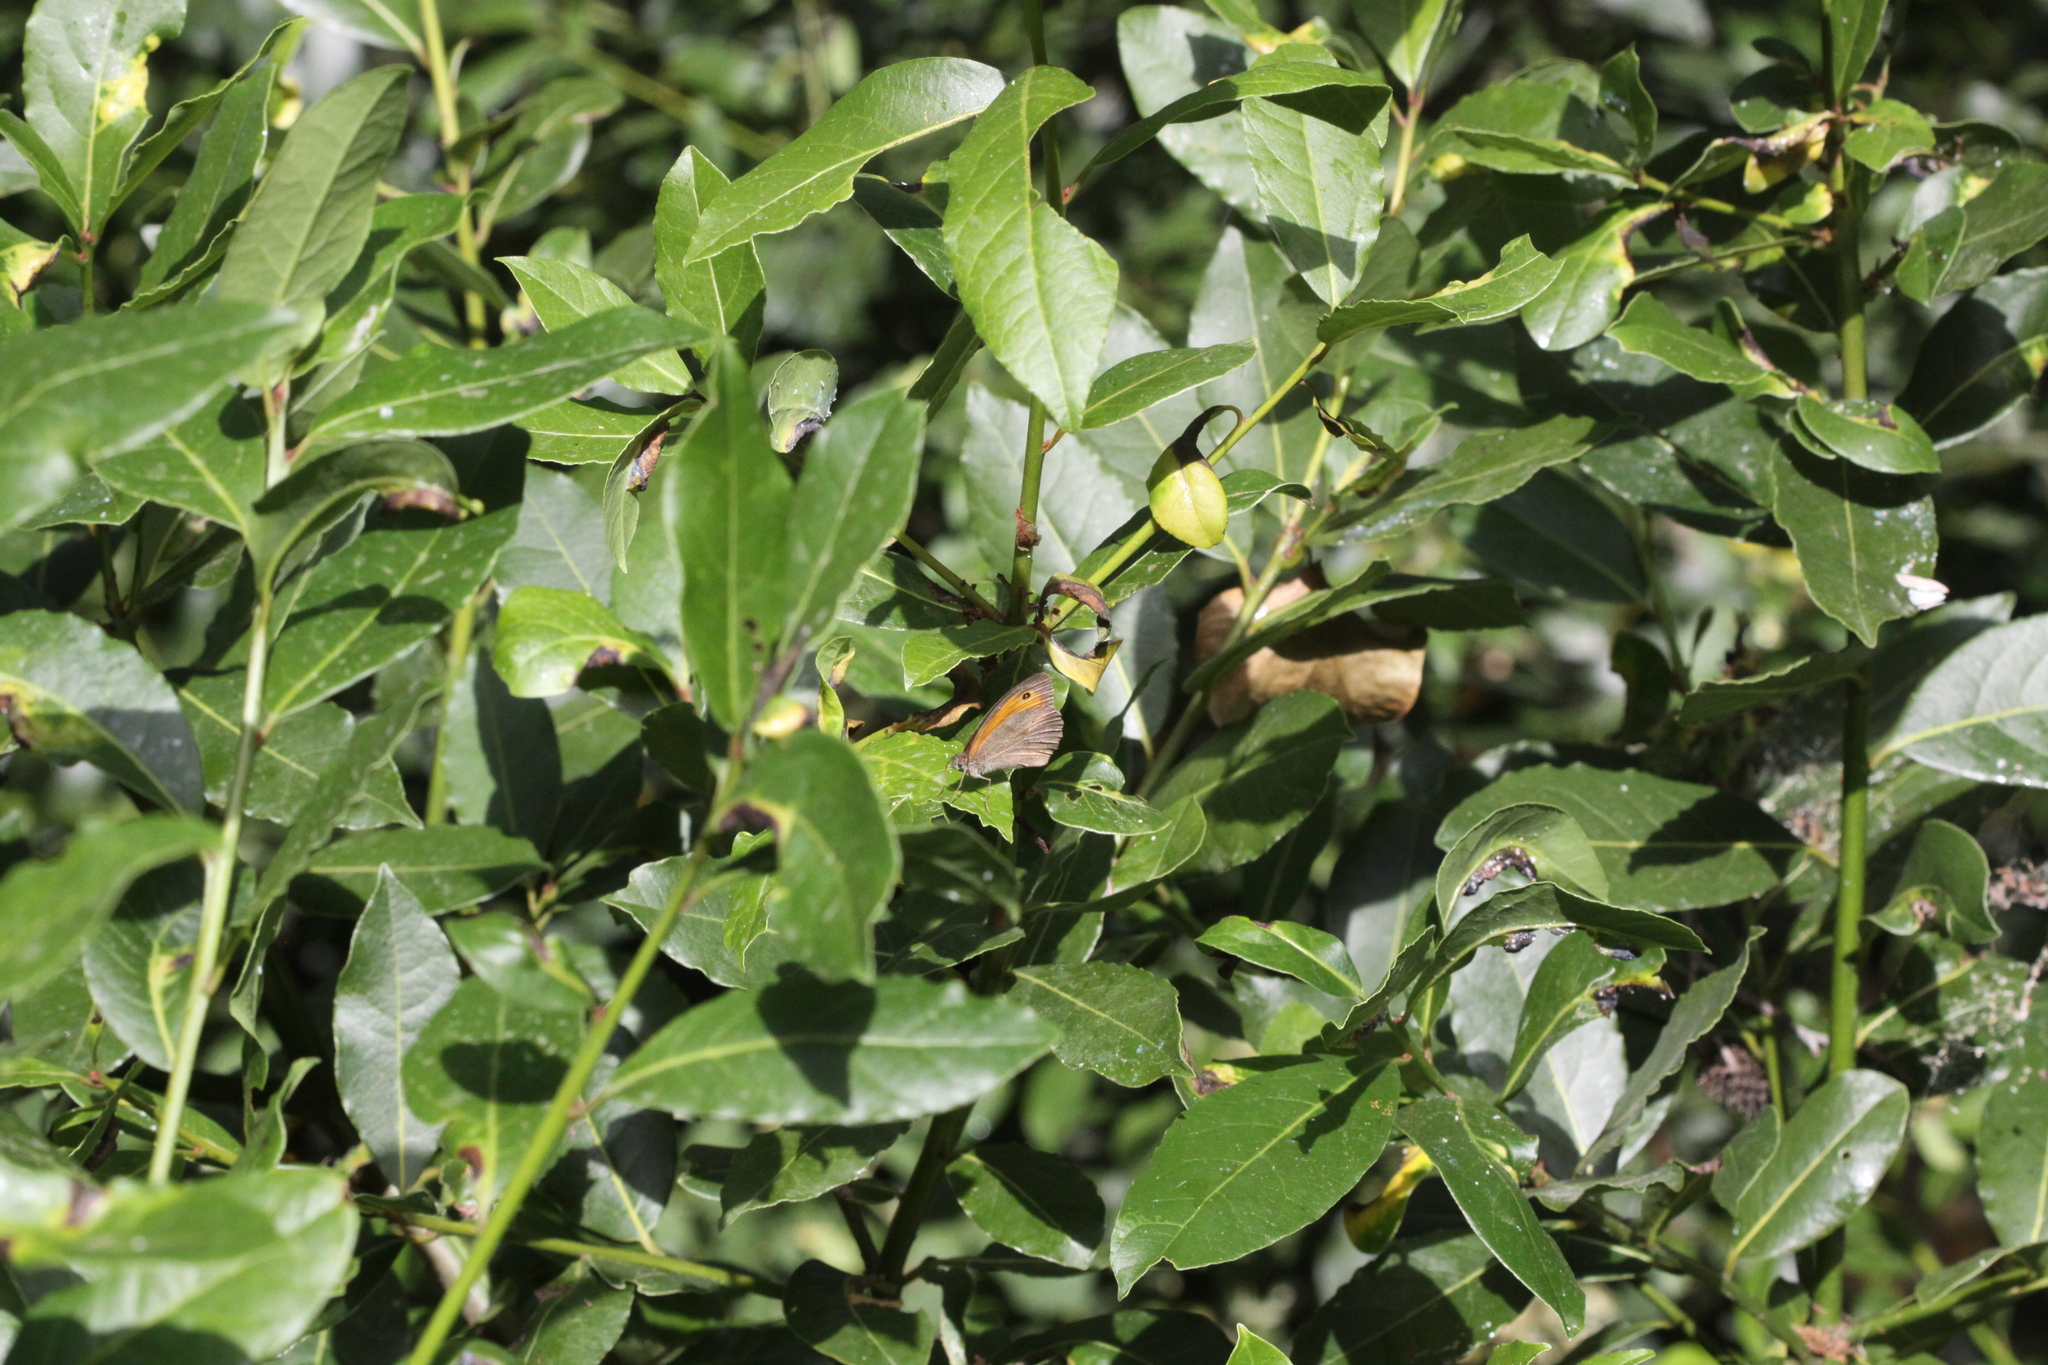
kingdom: Animalia
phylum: Arthropoda
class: Insecta
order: Lepidoptera
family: Nymphalidae
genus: Maniola
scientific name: Maniola jurtina
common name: Meadow brown
